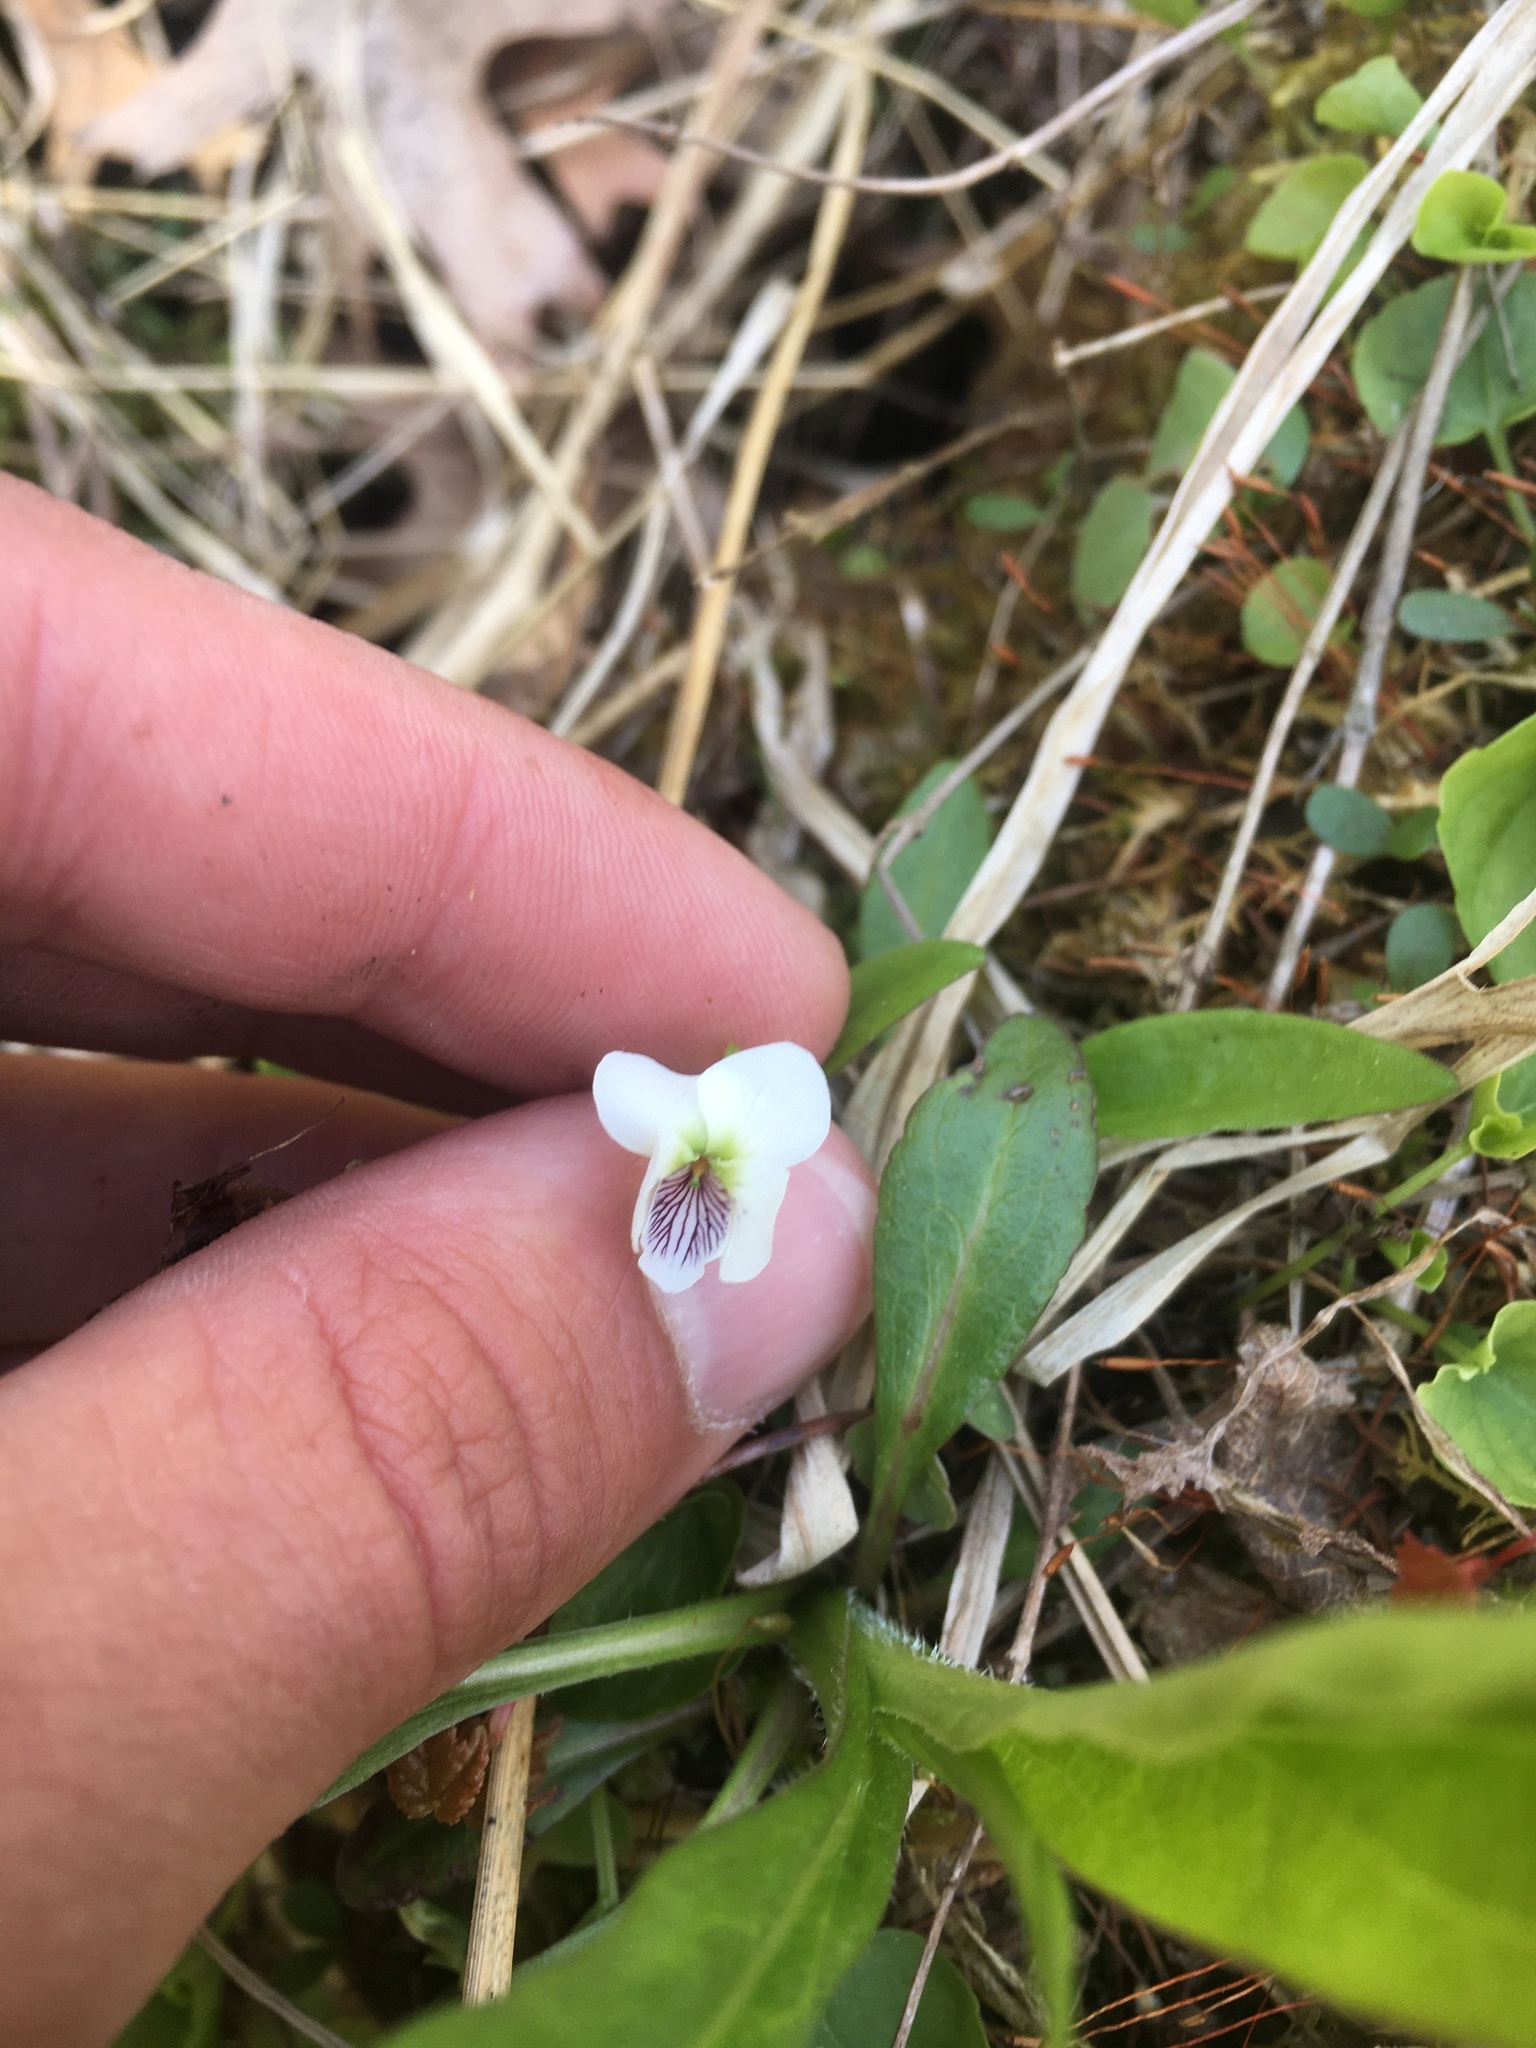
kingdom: Plantae
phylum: Tracheophyta
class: Magnoliopsida
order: Malpighiales
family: Violaceae
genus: Viola
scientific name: Viola minuscula
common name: Northern white violet
